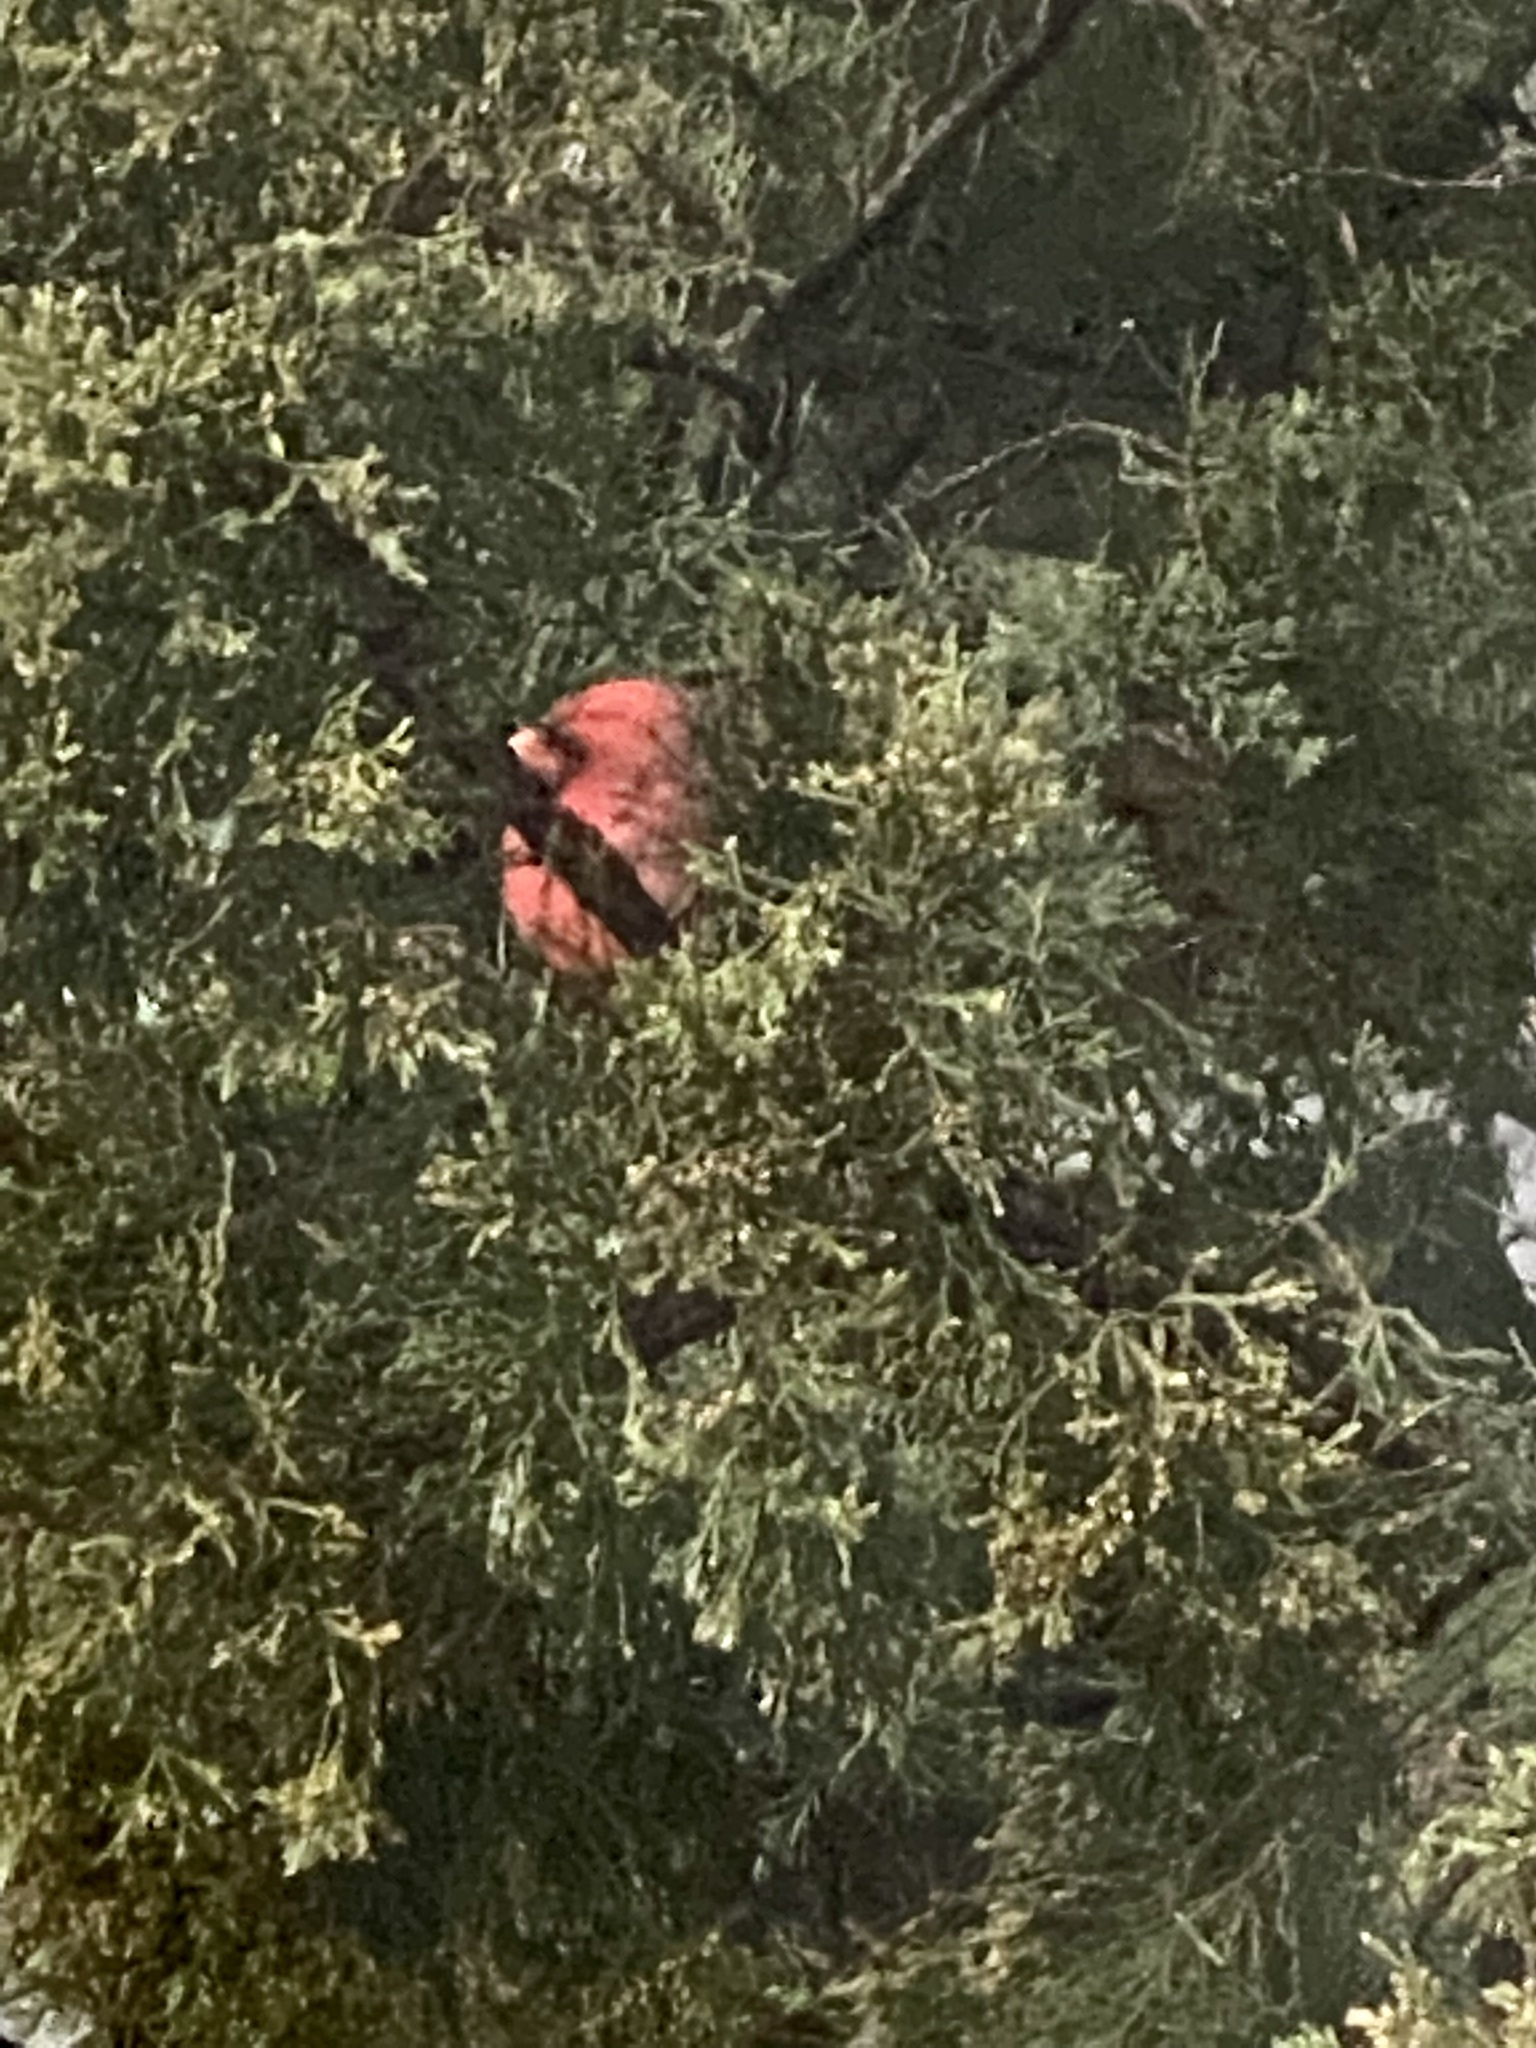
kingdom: Animalia
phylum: Chordata
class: Aves
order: Passeriformes
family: Cardinalidae
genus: Cardinalis
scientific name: Cardinalis cardinalis
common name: Northern cardinal
